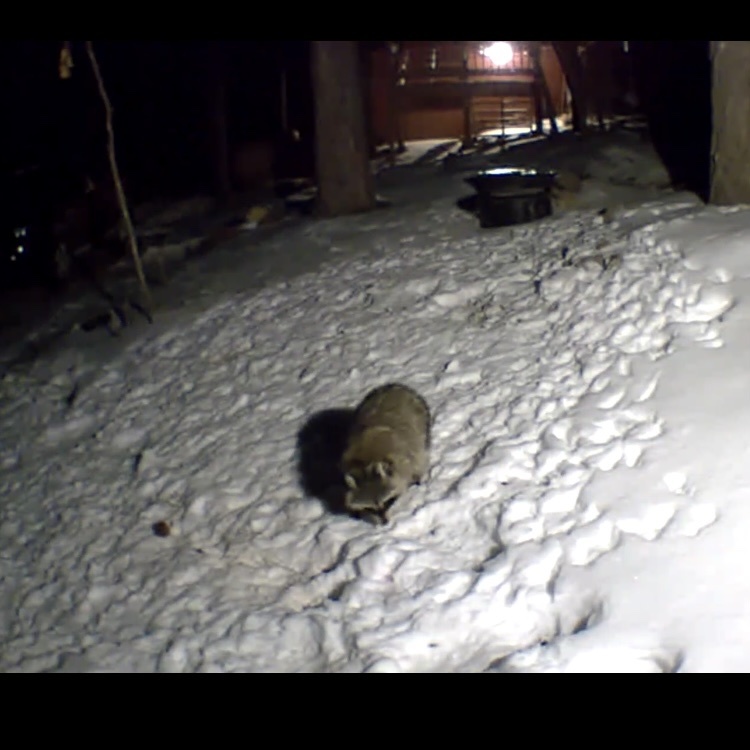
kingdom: Animalia
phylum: Chordata
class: Mammalia
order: Carnivora
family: Procyonidae
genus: Procyon
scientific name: Procyon lotor
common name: Raccoon
